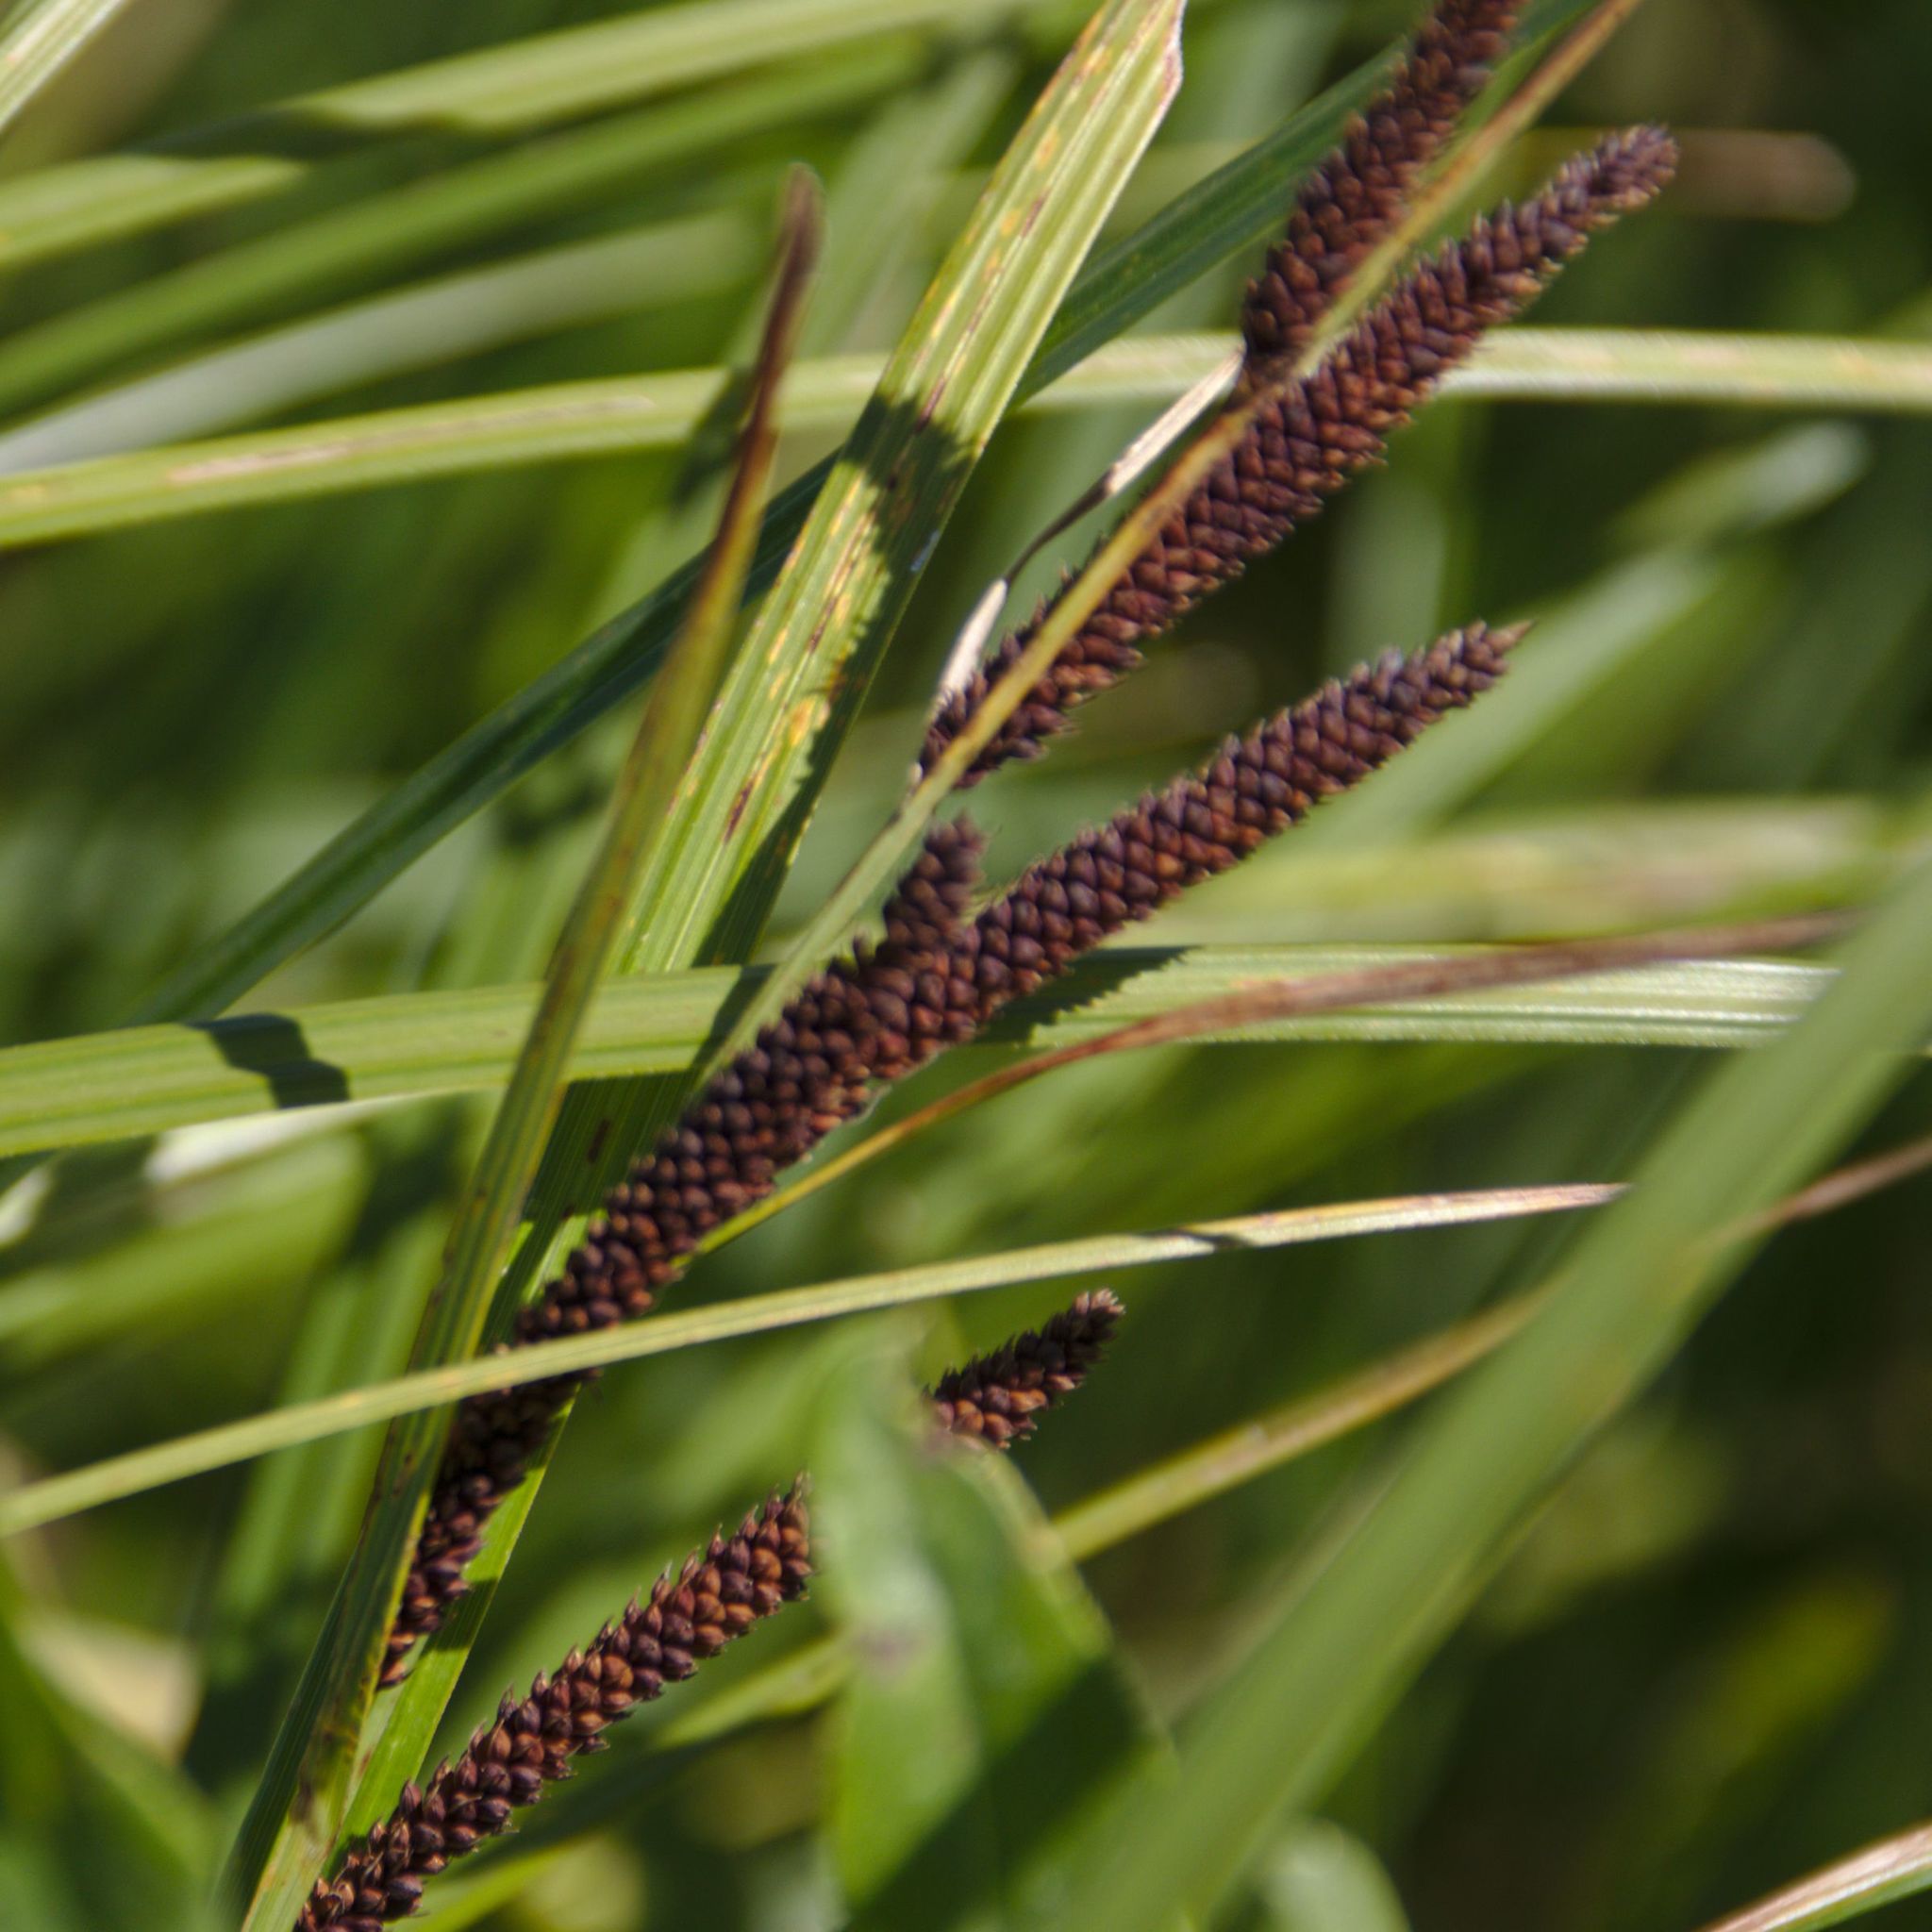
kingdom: Plantae
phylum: Tracheophyta
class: Liliopsida
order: Poales
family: Cyperaceae
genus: Carex
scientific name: Carex acuta
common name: Slender tufted-sedge
